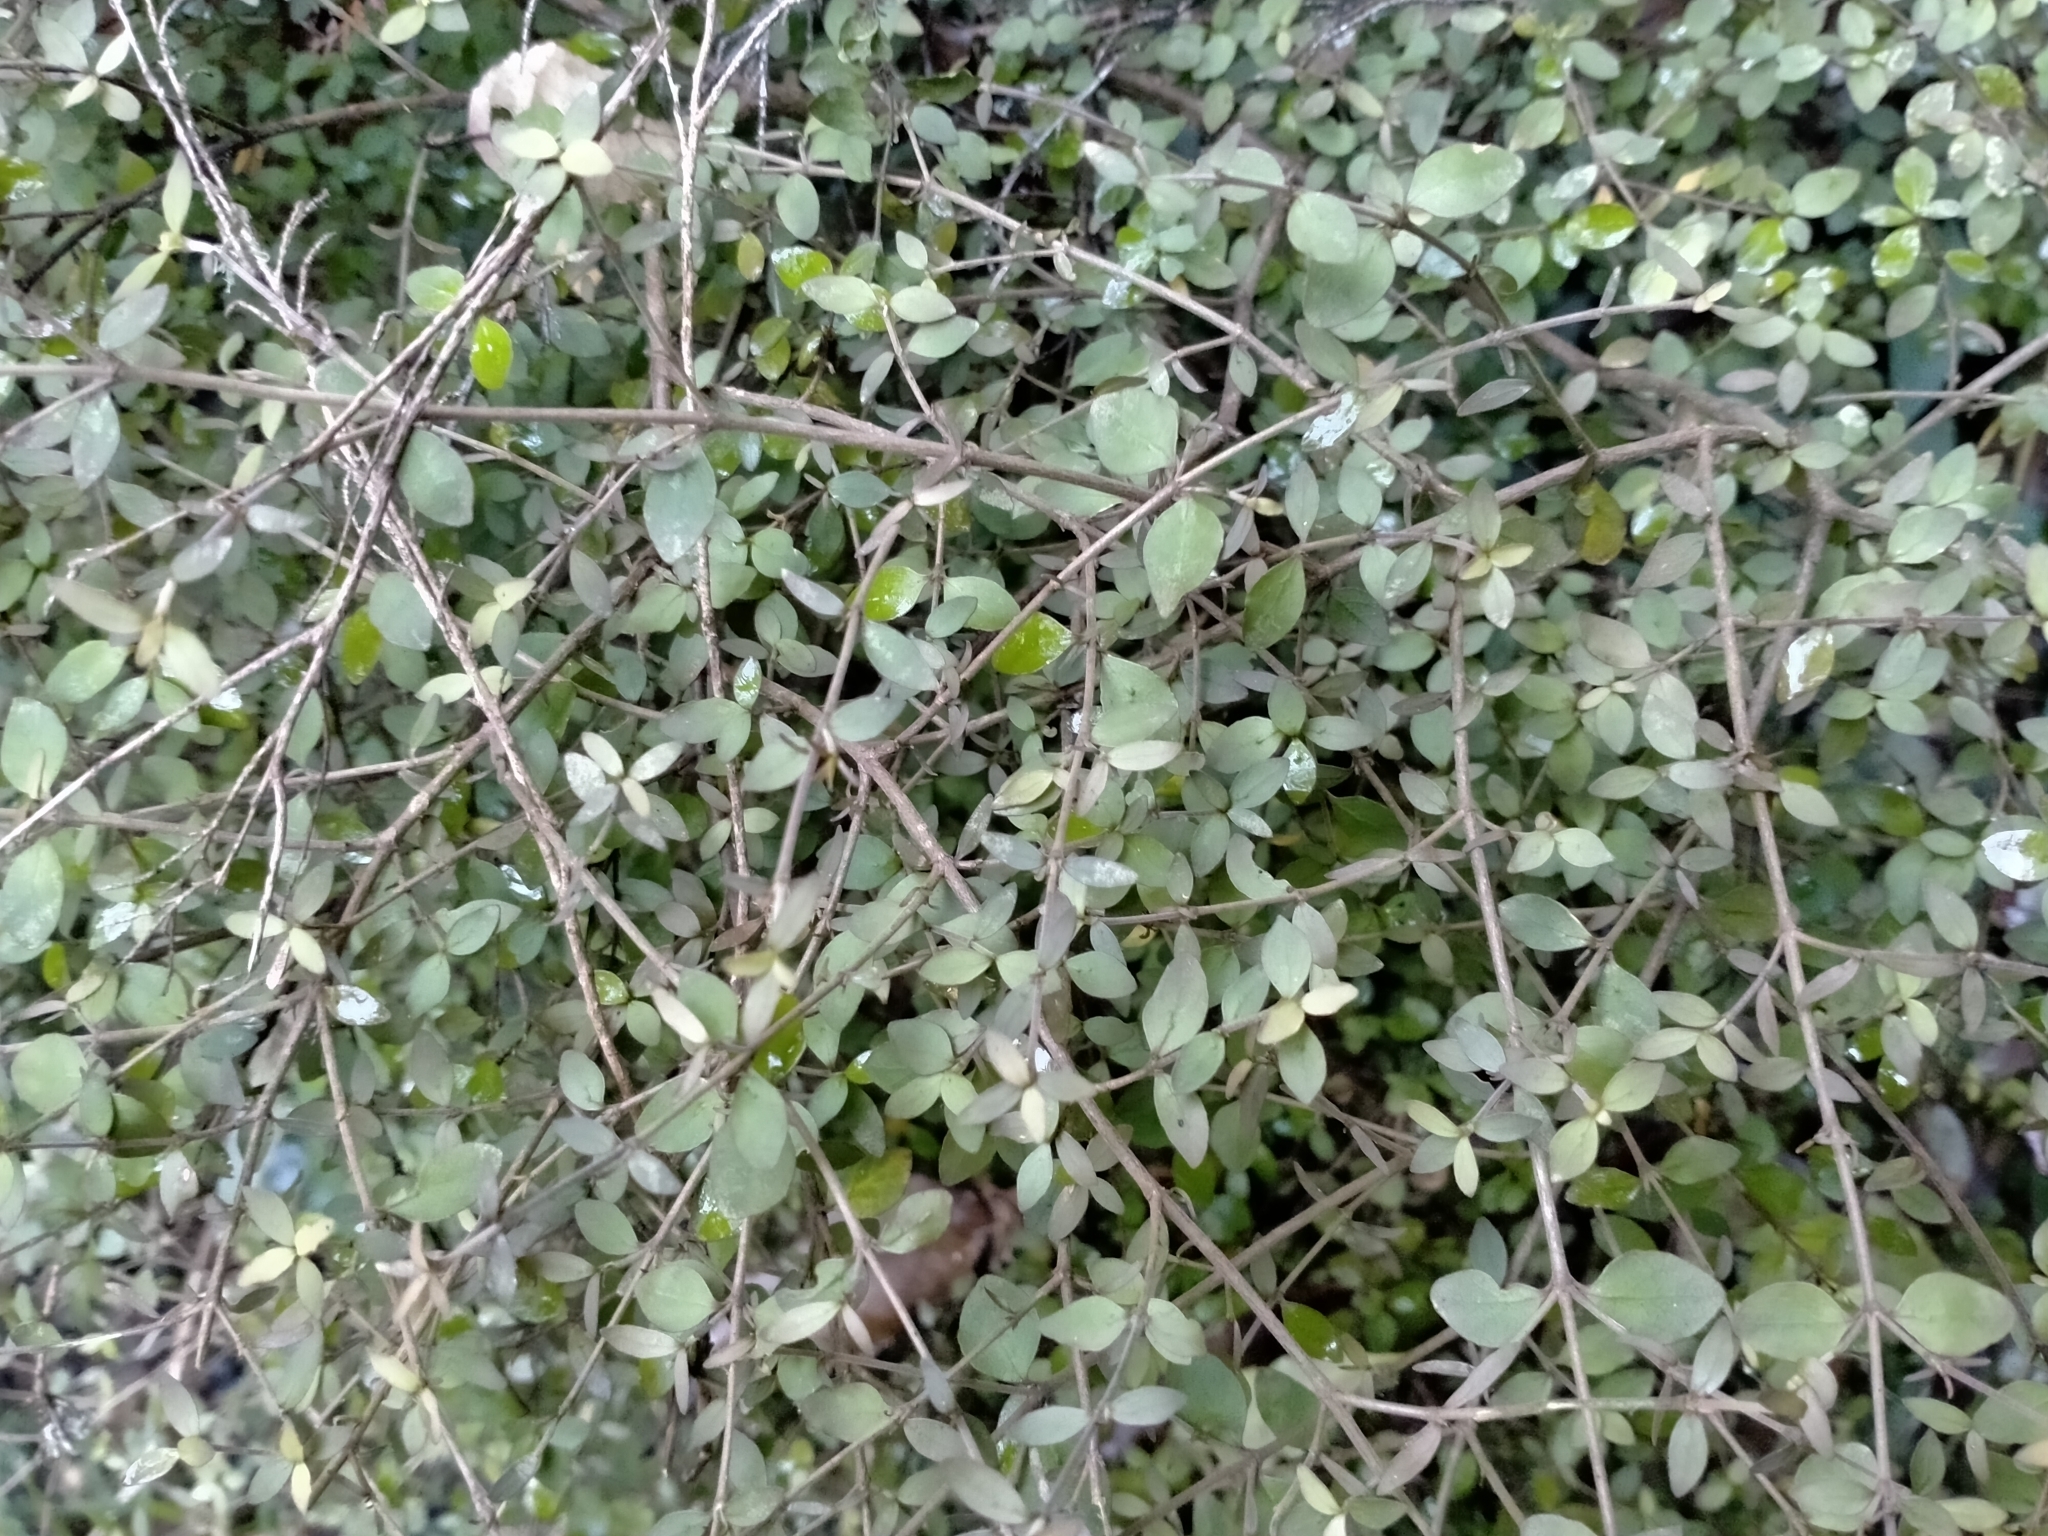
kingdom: Plantae
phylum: Tracheophyta
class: Magnoliopsida
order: Gentianales
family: Rubiaceae
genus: Coprosma
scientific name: Coprosma rhamnoides
